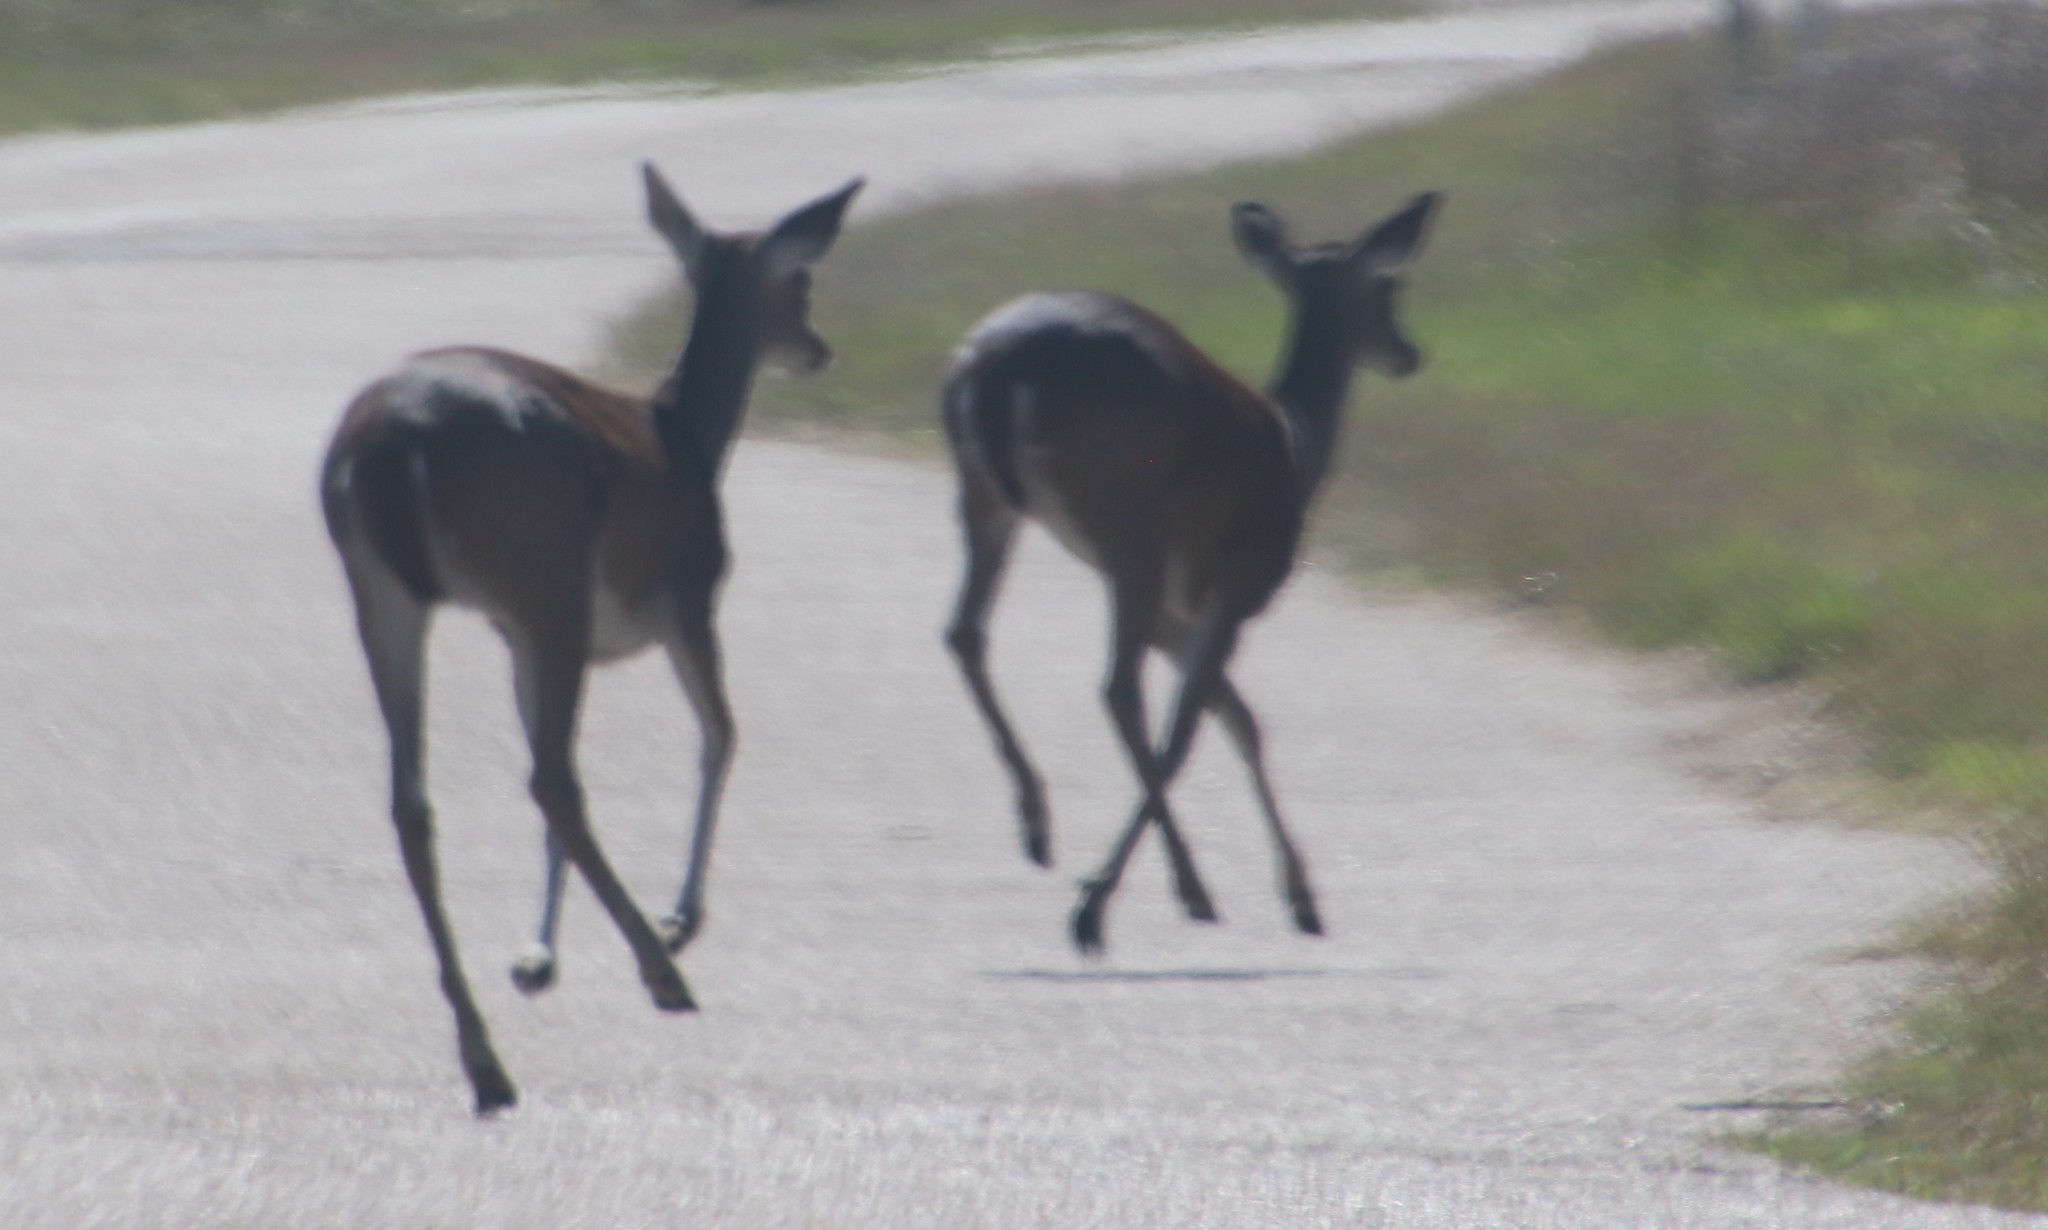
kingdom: Animalia
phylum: Chordata
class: Mammalia
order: Artiodactyla
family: Cervidae
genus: Odocoileus
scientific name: Odocoileus virginianus
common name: White-tailed deer
